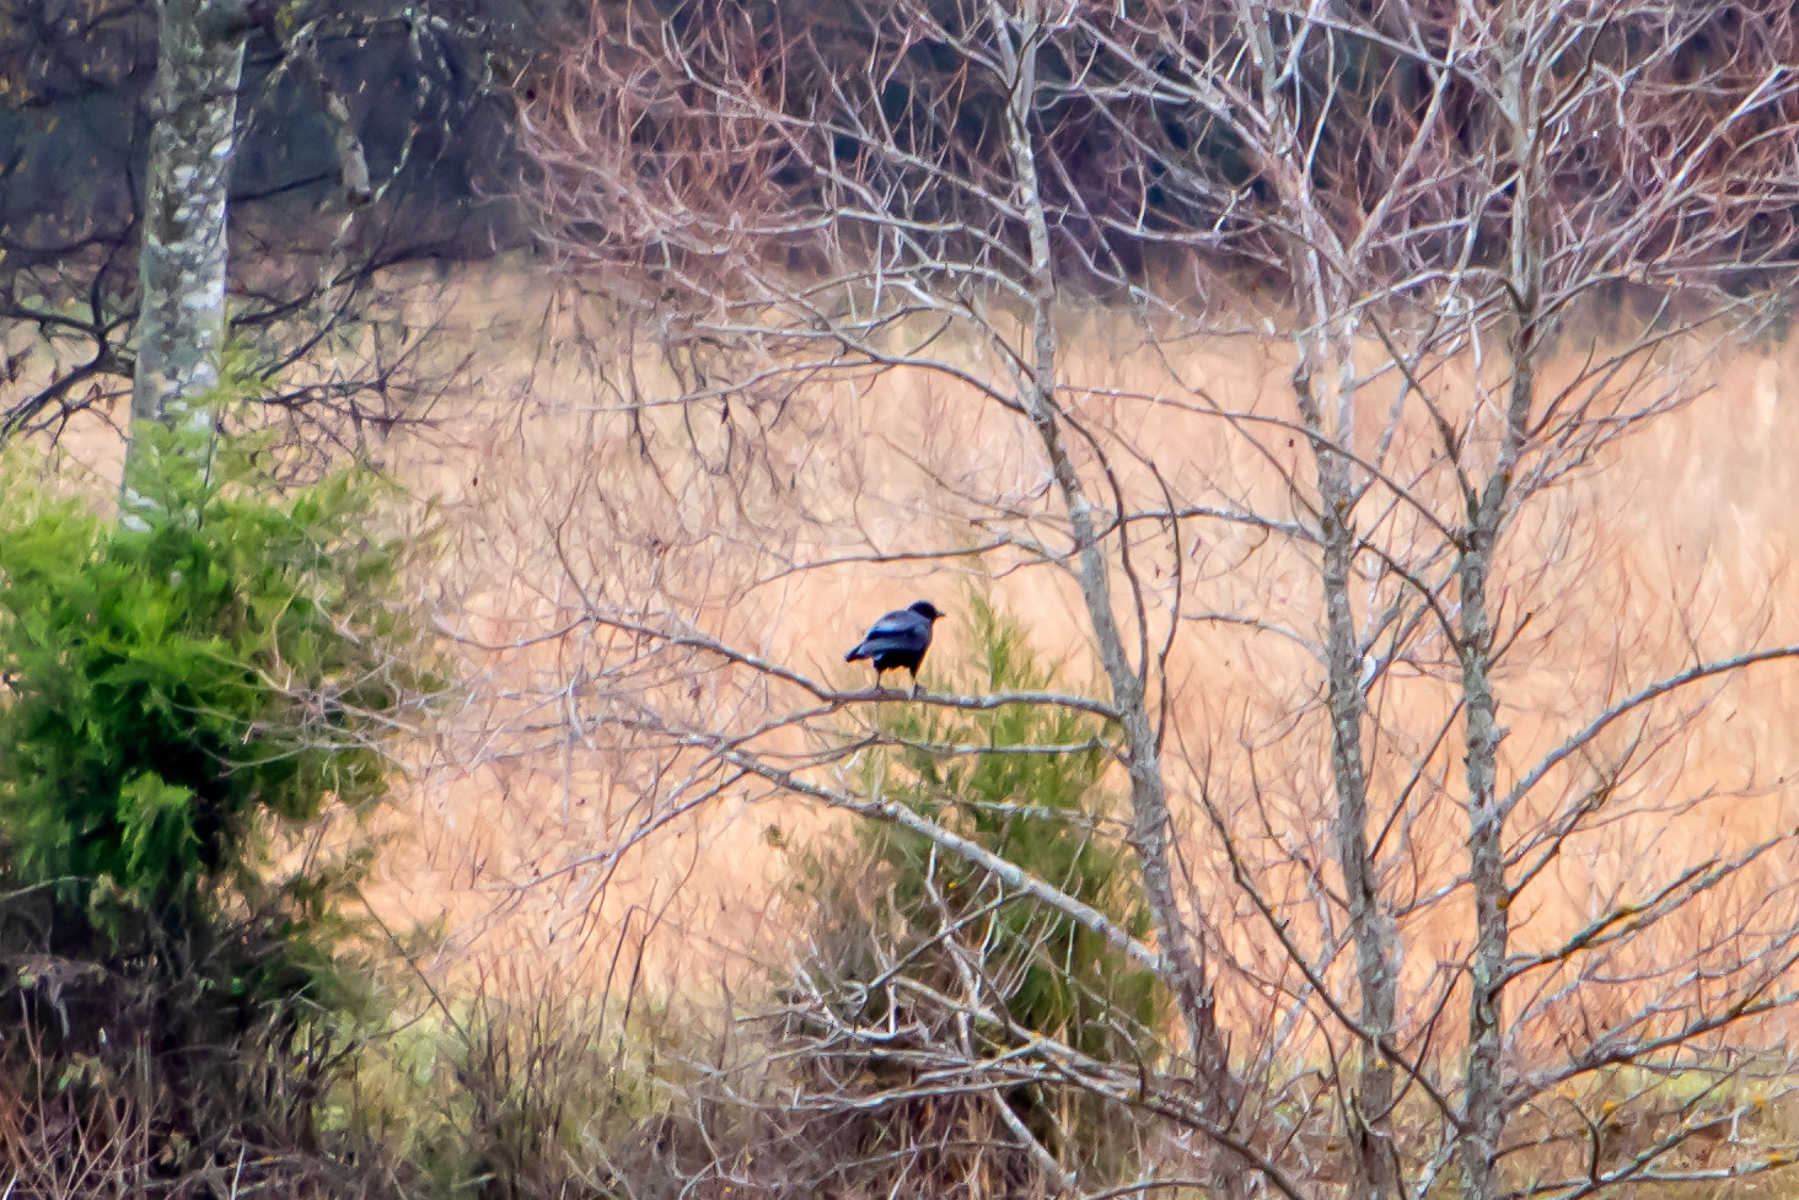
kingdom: Animalia
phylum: Chordata
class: Aves
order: Passeriformes
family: Corvidae
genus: Corvus
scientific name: Corvus brachyrhynchos
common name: American crow
